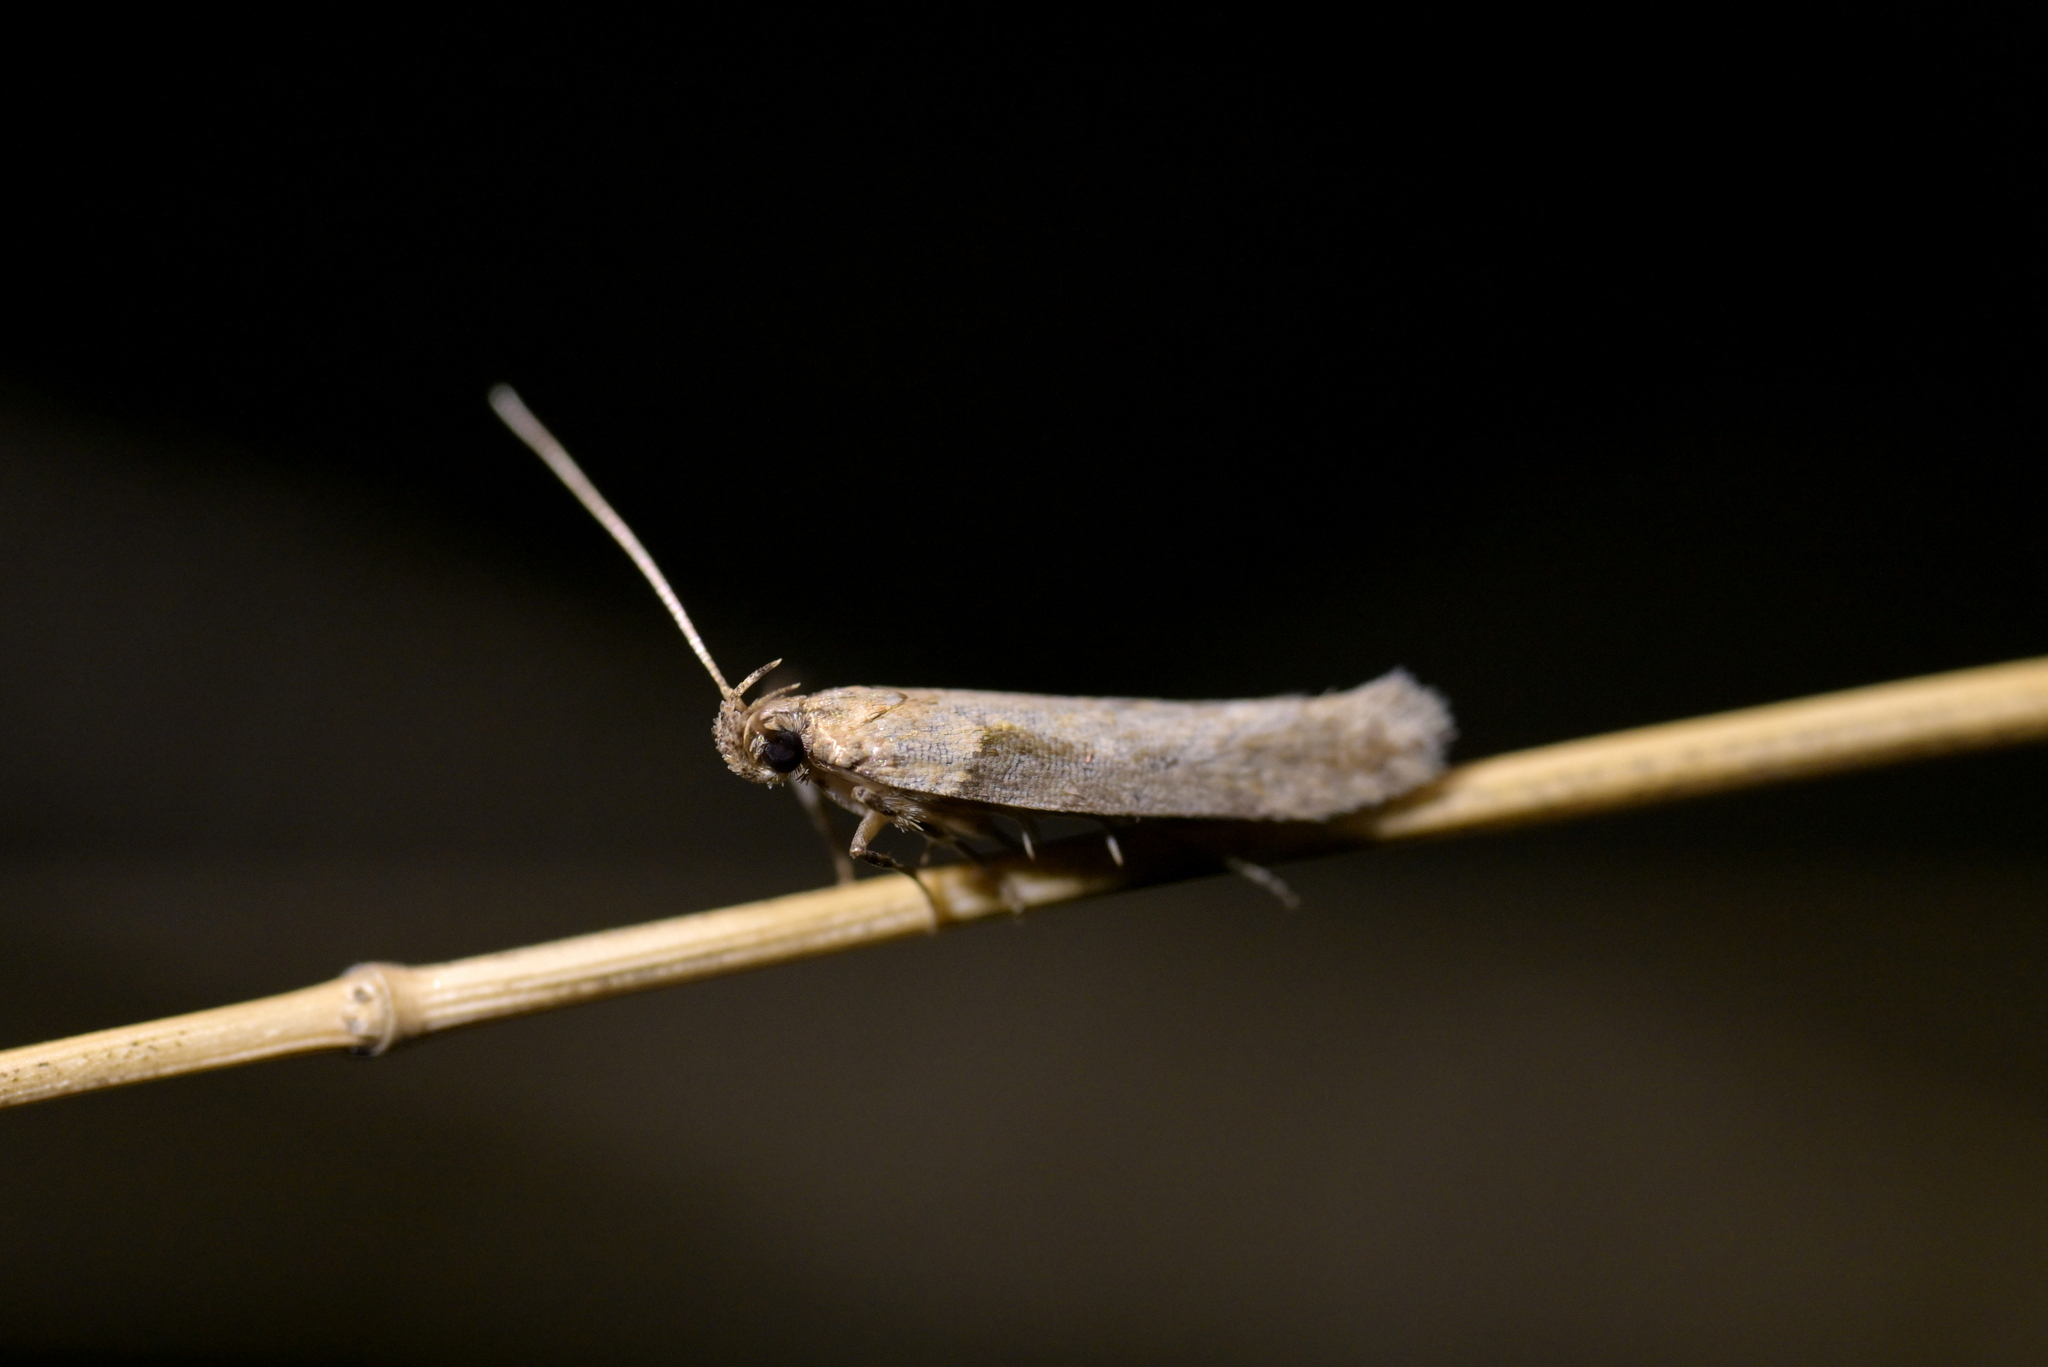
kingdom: Animalia
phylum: Arthropoda
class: Insecta
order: Lepidoptera
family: Gelechiidae
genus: Symmetrischema
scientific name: Symmetrischema tangolias
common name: Moth
